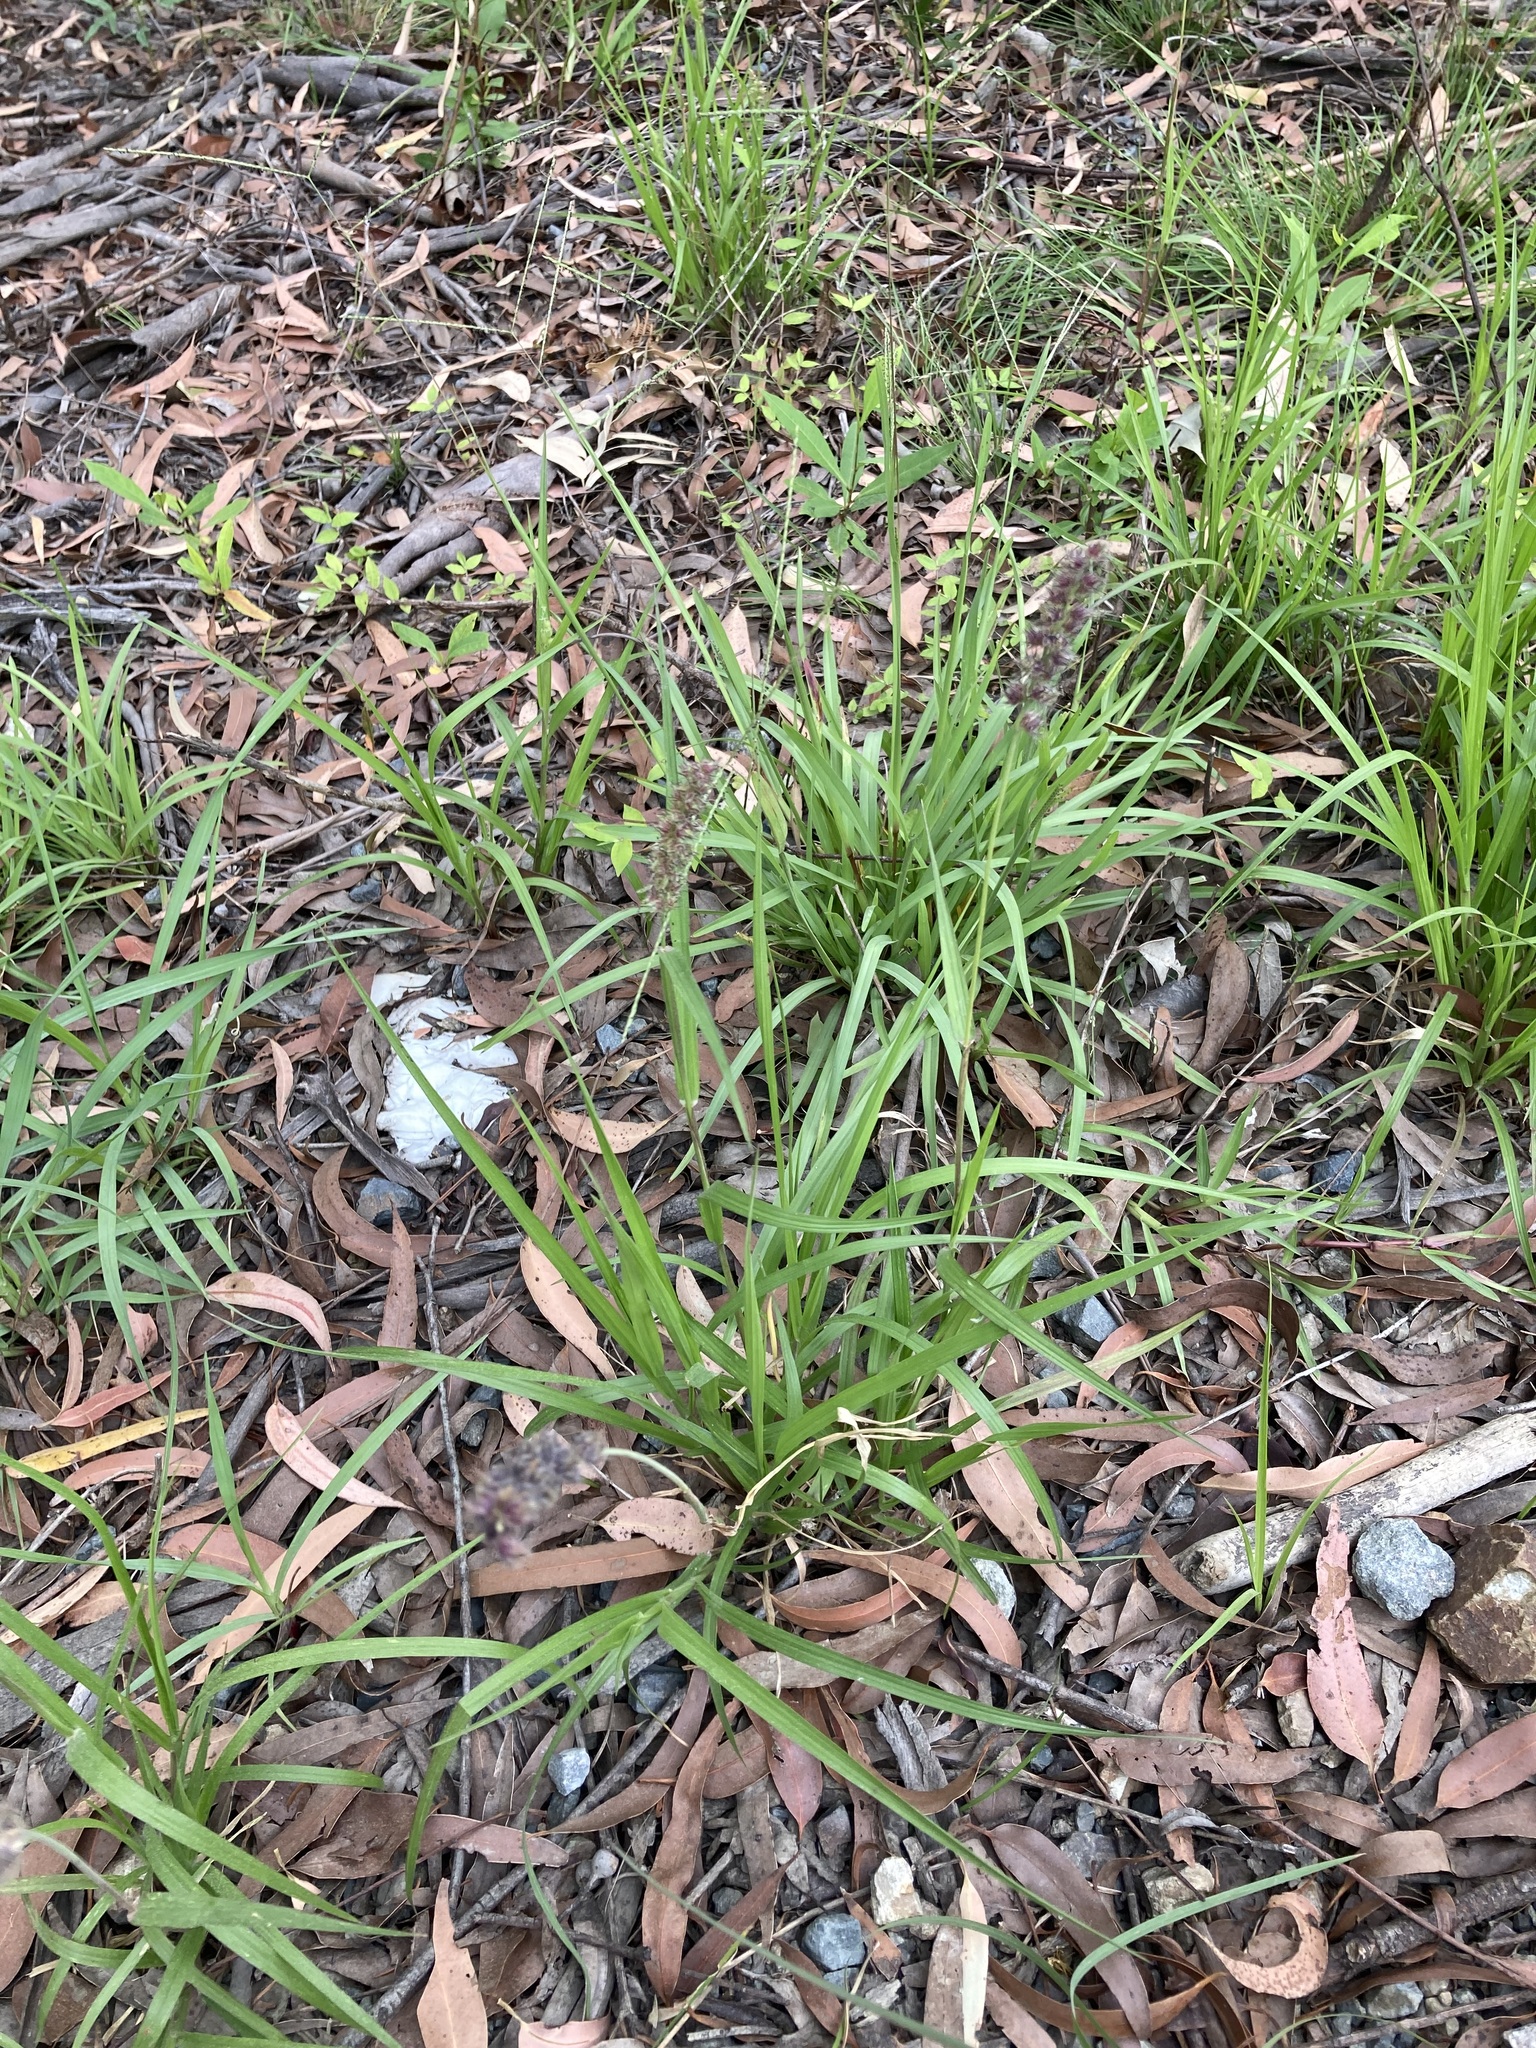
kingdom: Plantae
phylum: Tracheophyta
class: Liliopsida
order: Poales
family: Poaceae
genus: Cenchrus
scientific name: Cenchrus echinatus
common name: Southern sandbur
